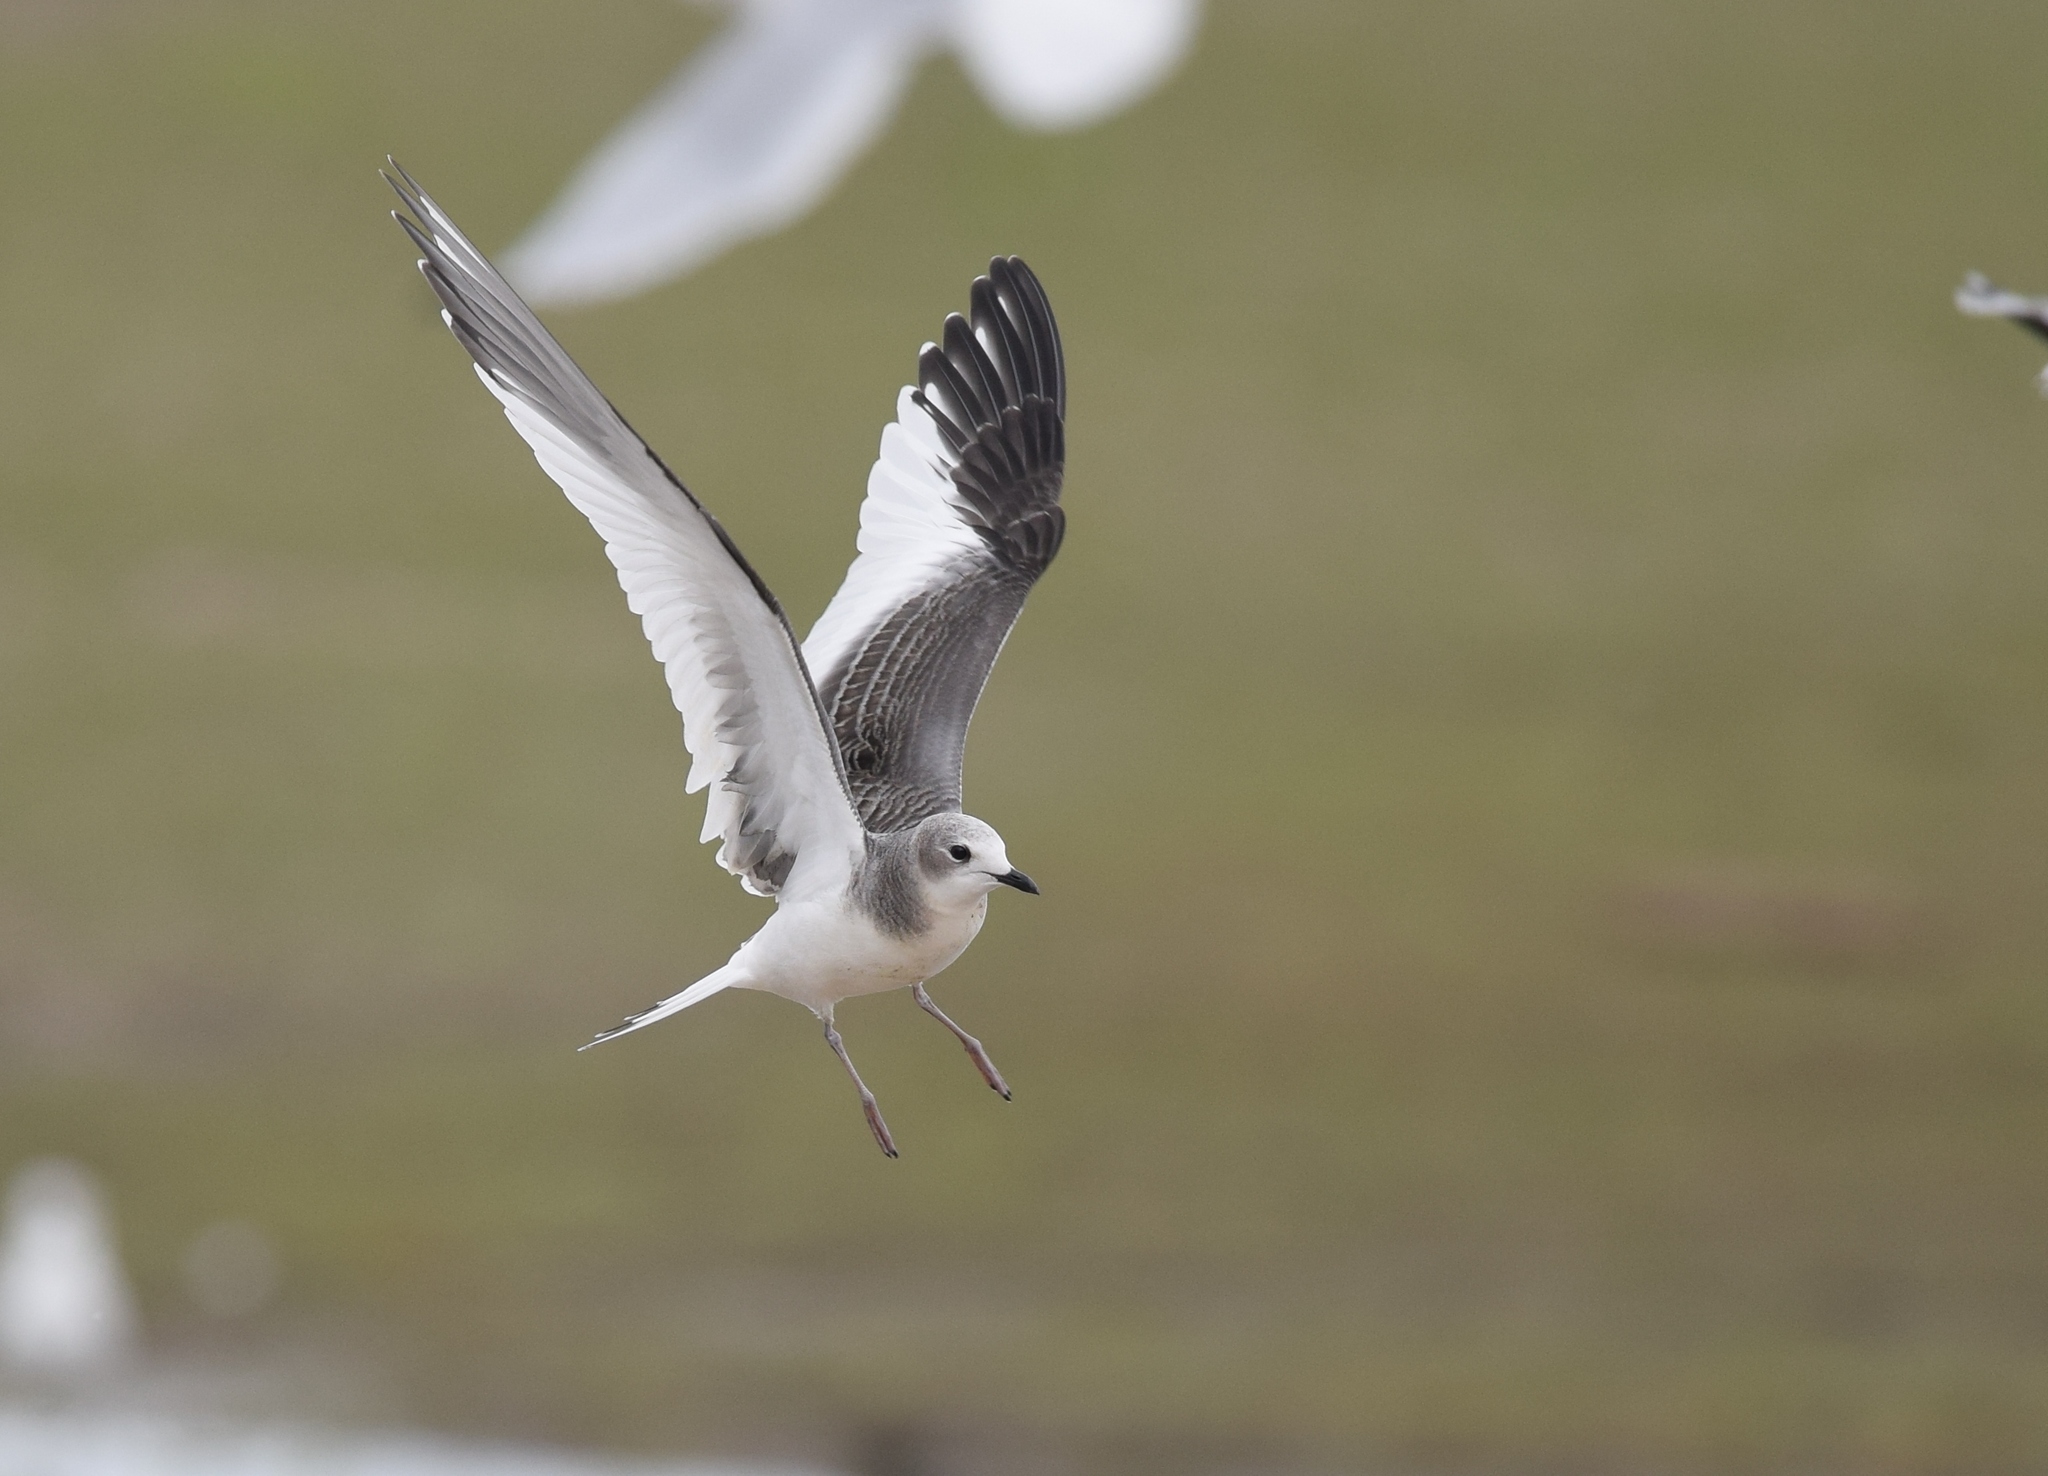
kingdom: Animalia
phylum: Chordata
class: Aves
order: Charadriiformes
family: Laridae
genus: Xema
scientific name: Xema sabini
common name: Sabine's gull
